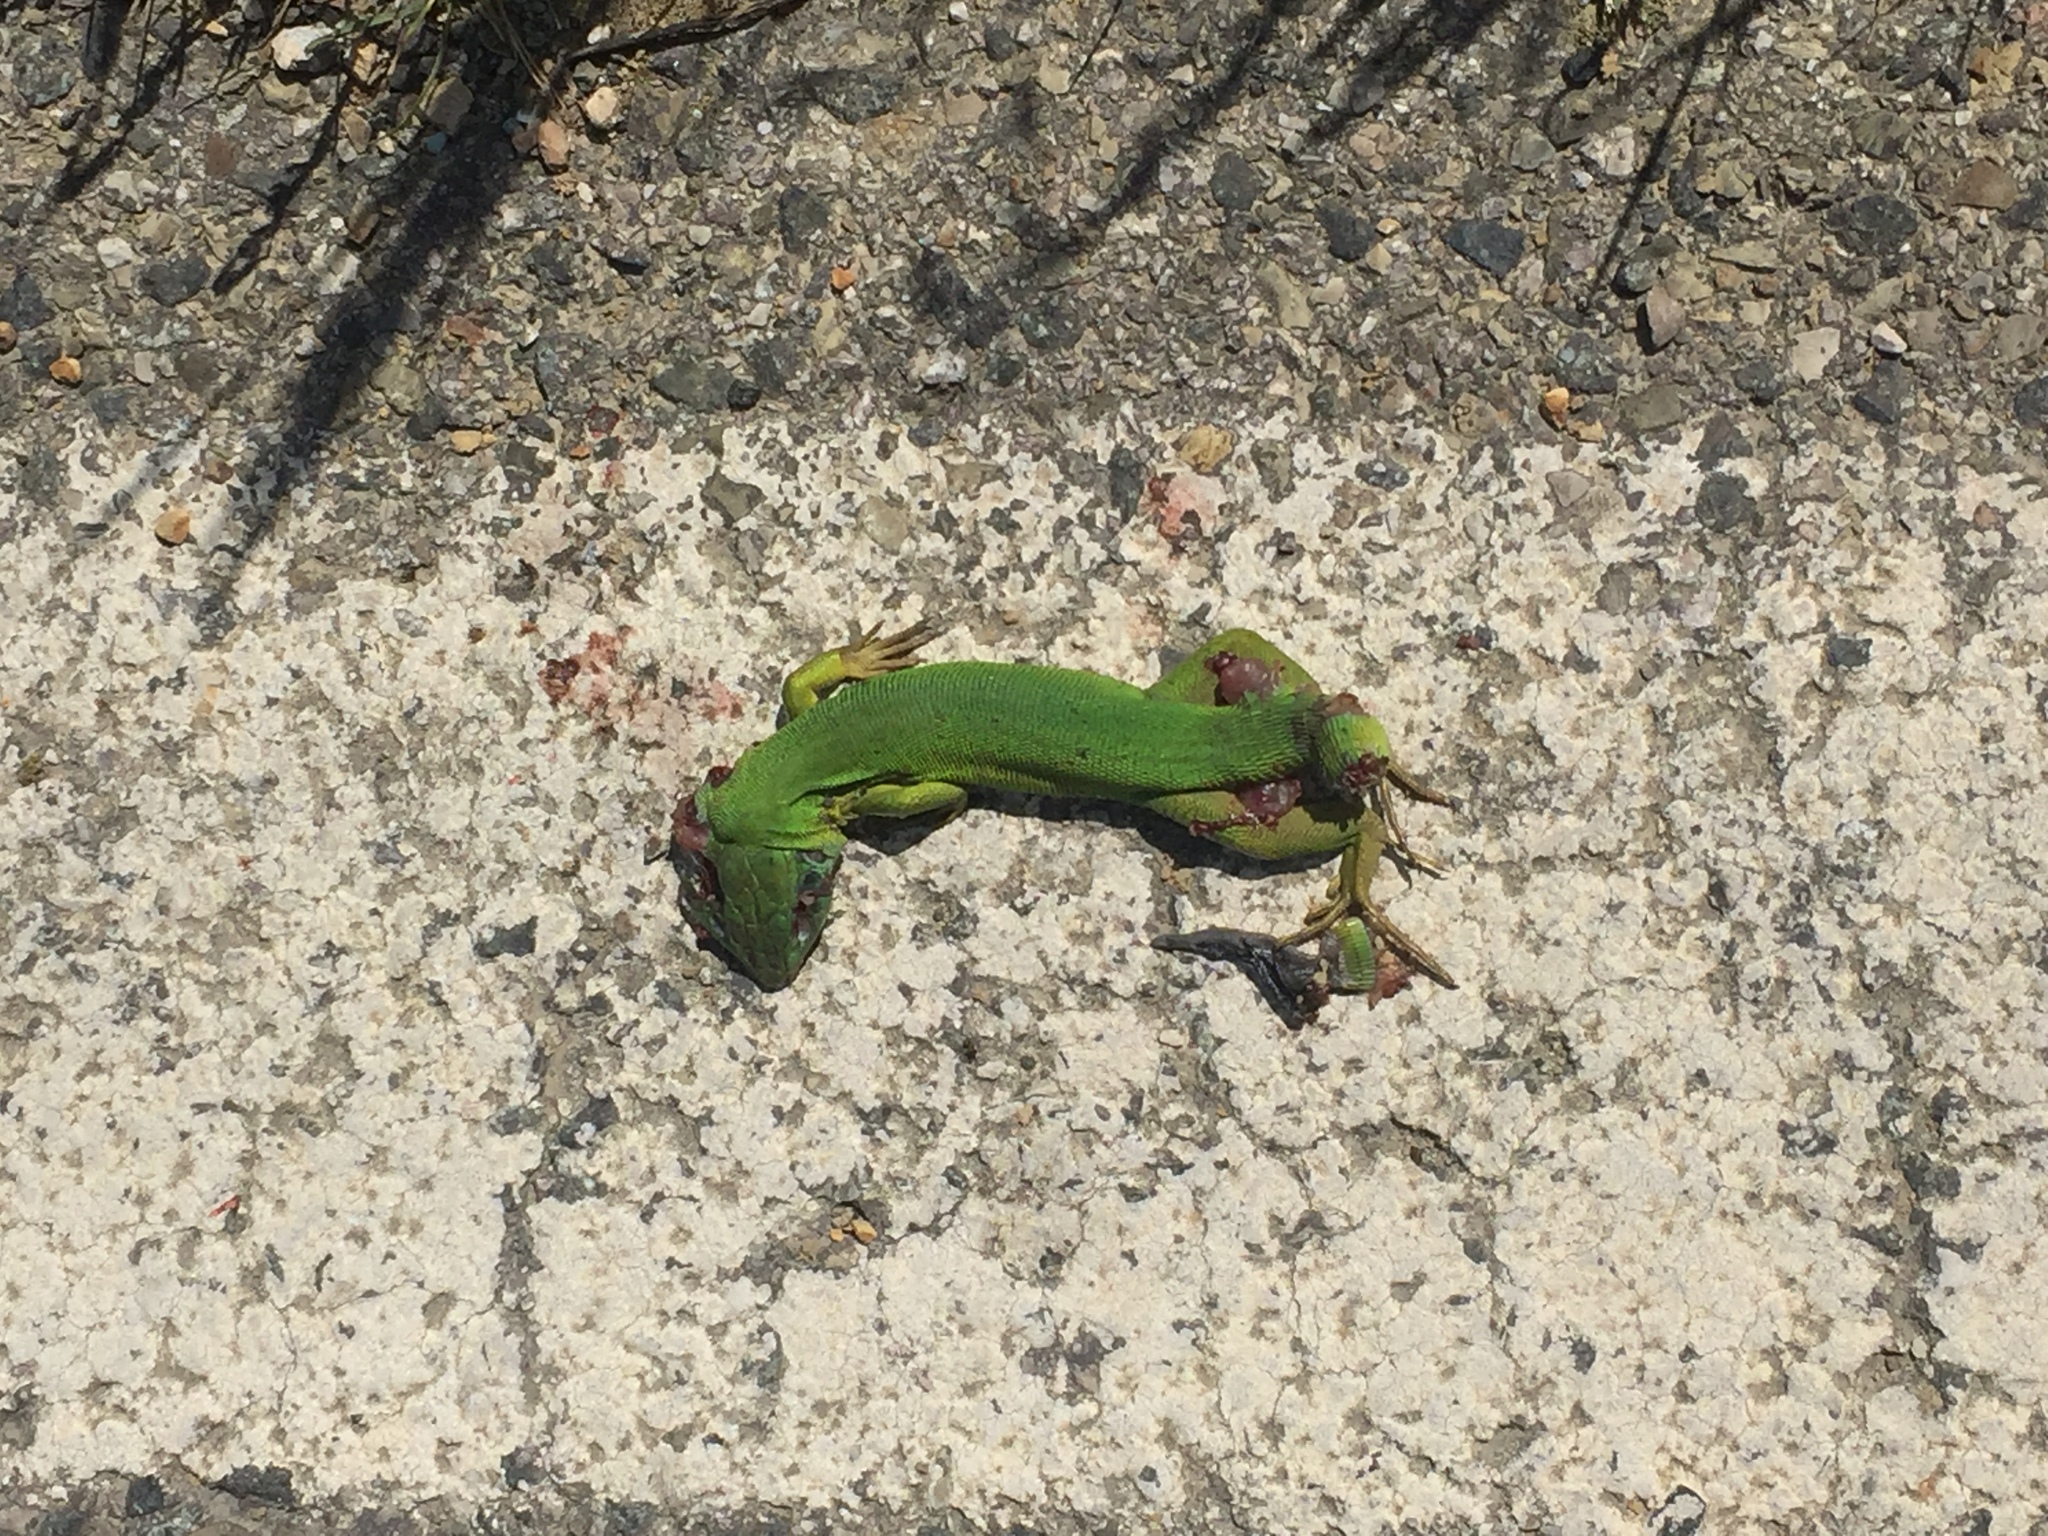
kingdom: Animalia
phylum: Chordata
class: Squamata
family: Lacertidae
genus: Lacerta
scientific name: Lacerta bilineata
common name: Western green lizard
